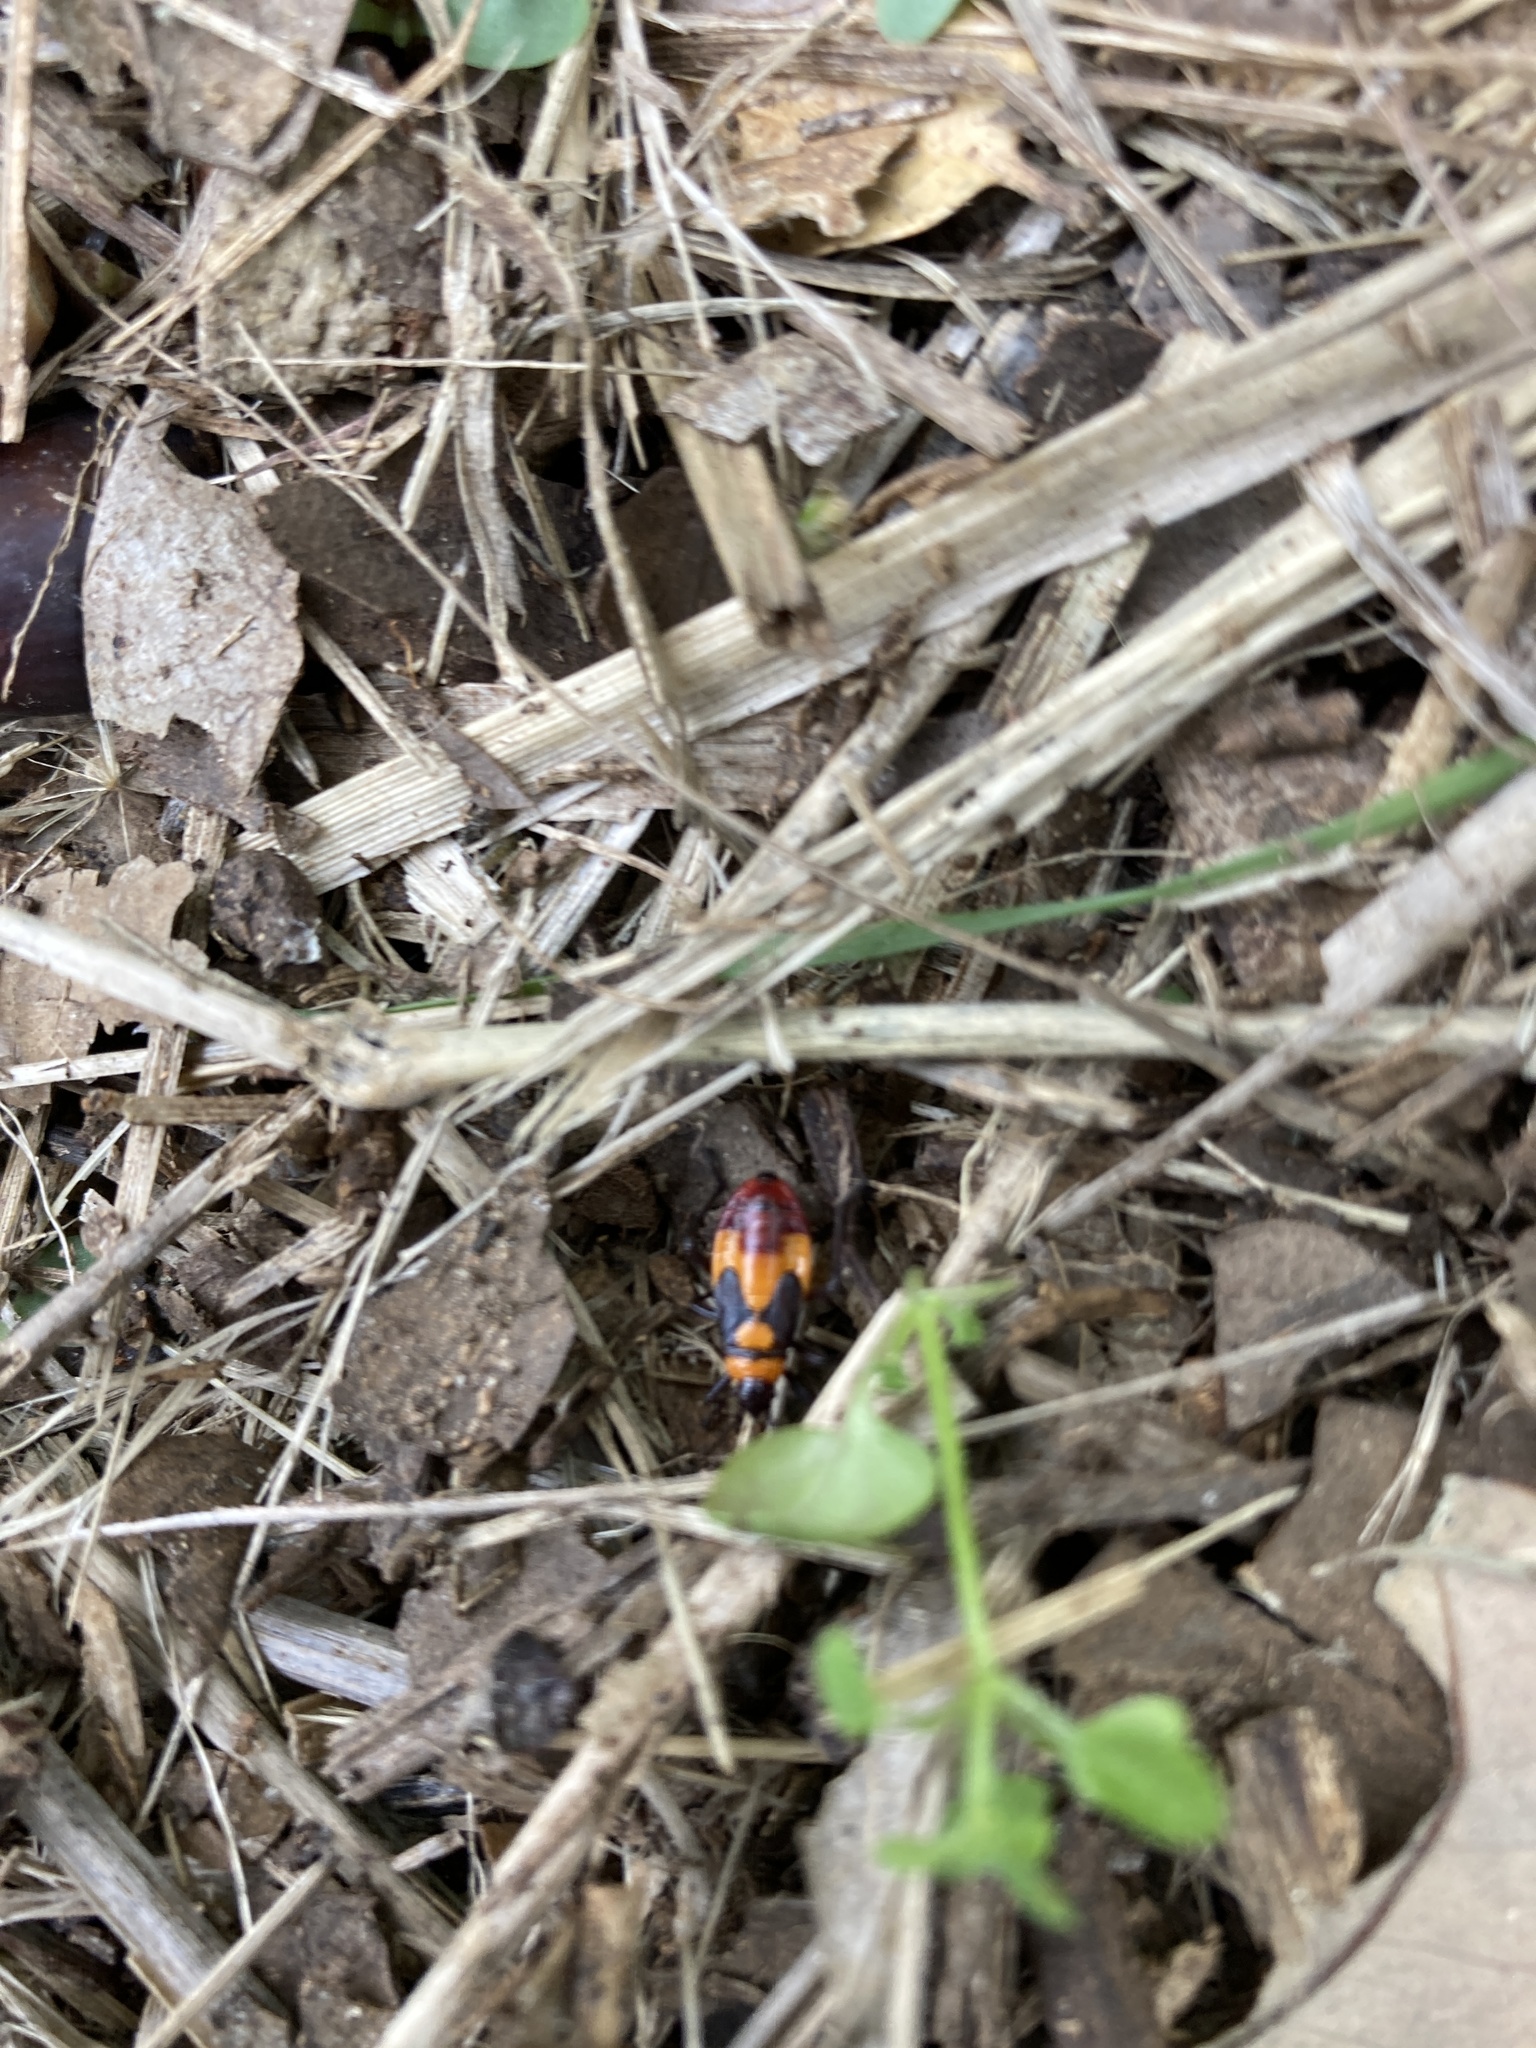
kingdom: Animalia
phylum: Arthropoda
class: Insecta
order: Hemiptera
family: Lygaeidae
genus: Oncopeltus
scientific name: Oncopeltus sexmaculatus
